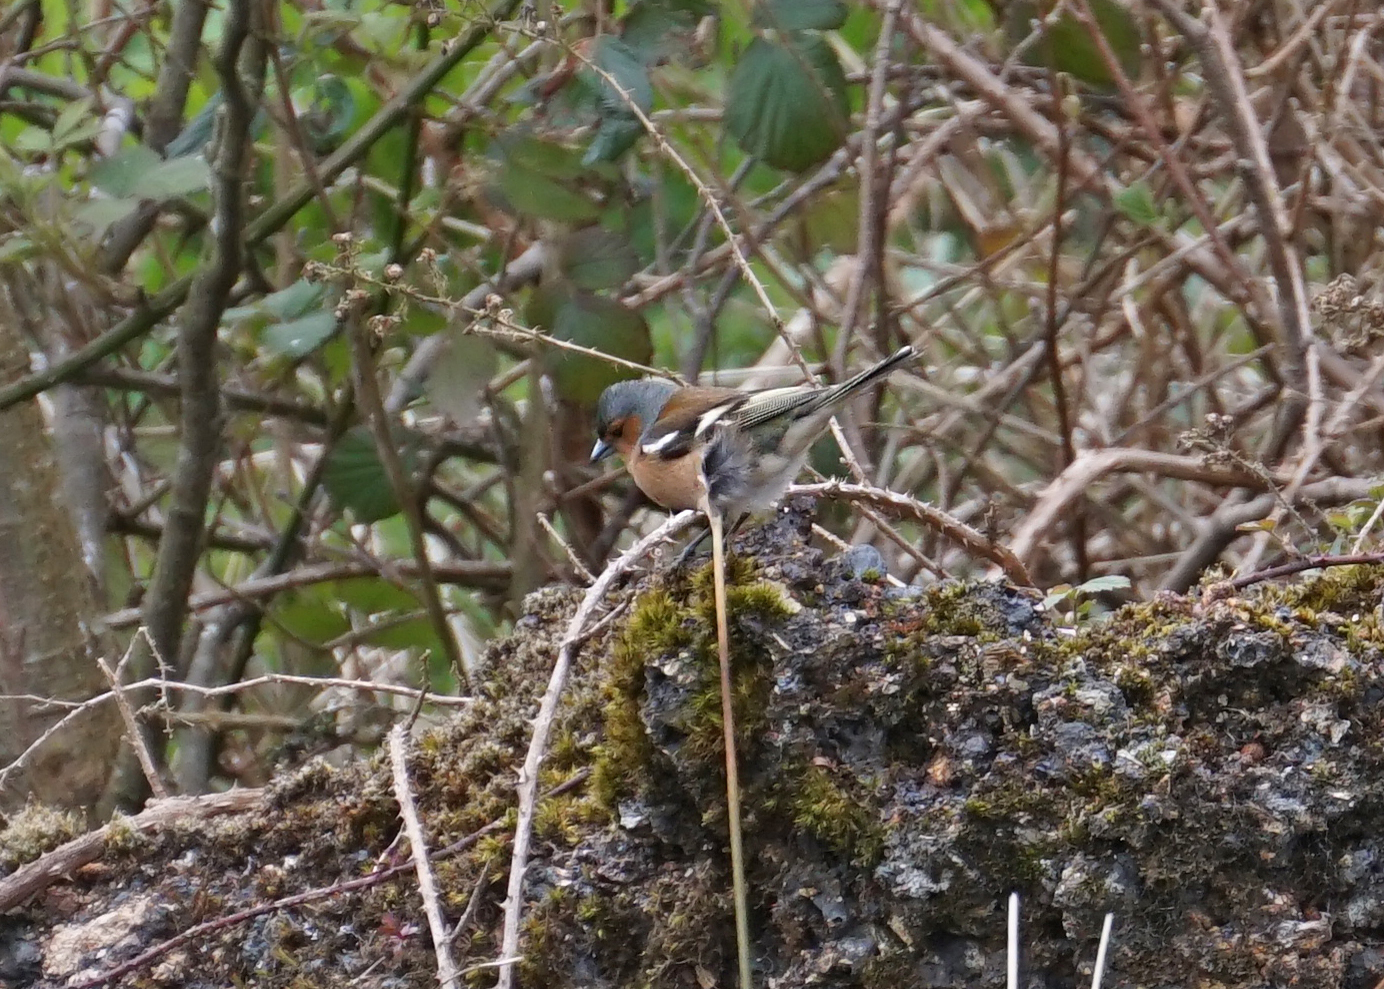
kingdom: Animalia
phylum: Chordata
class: Aves
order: Passeriformes
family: Fringillidae
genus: Fringilla
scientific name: Fringilla coelebs
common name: Common chaffinch
